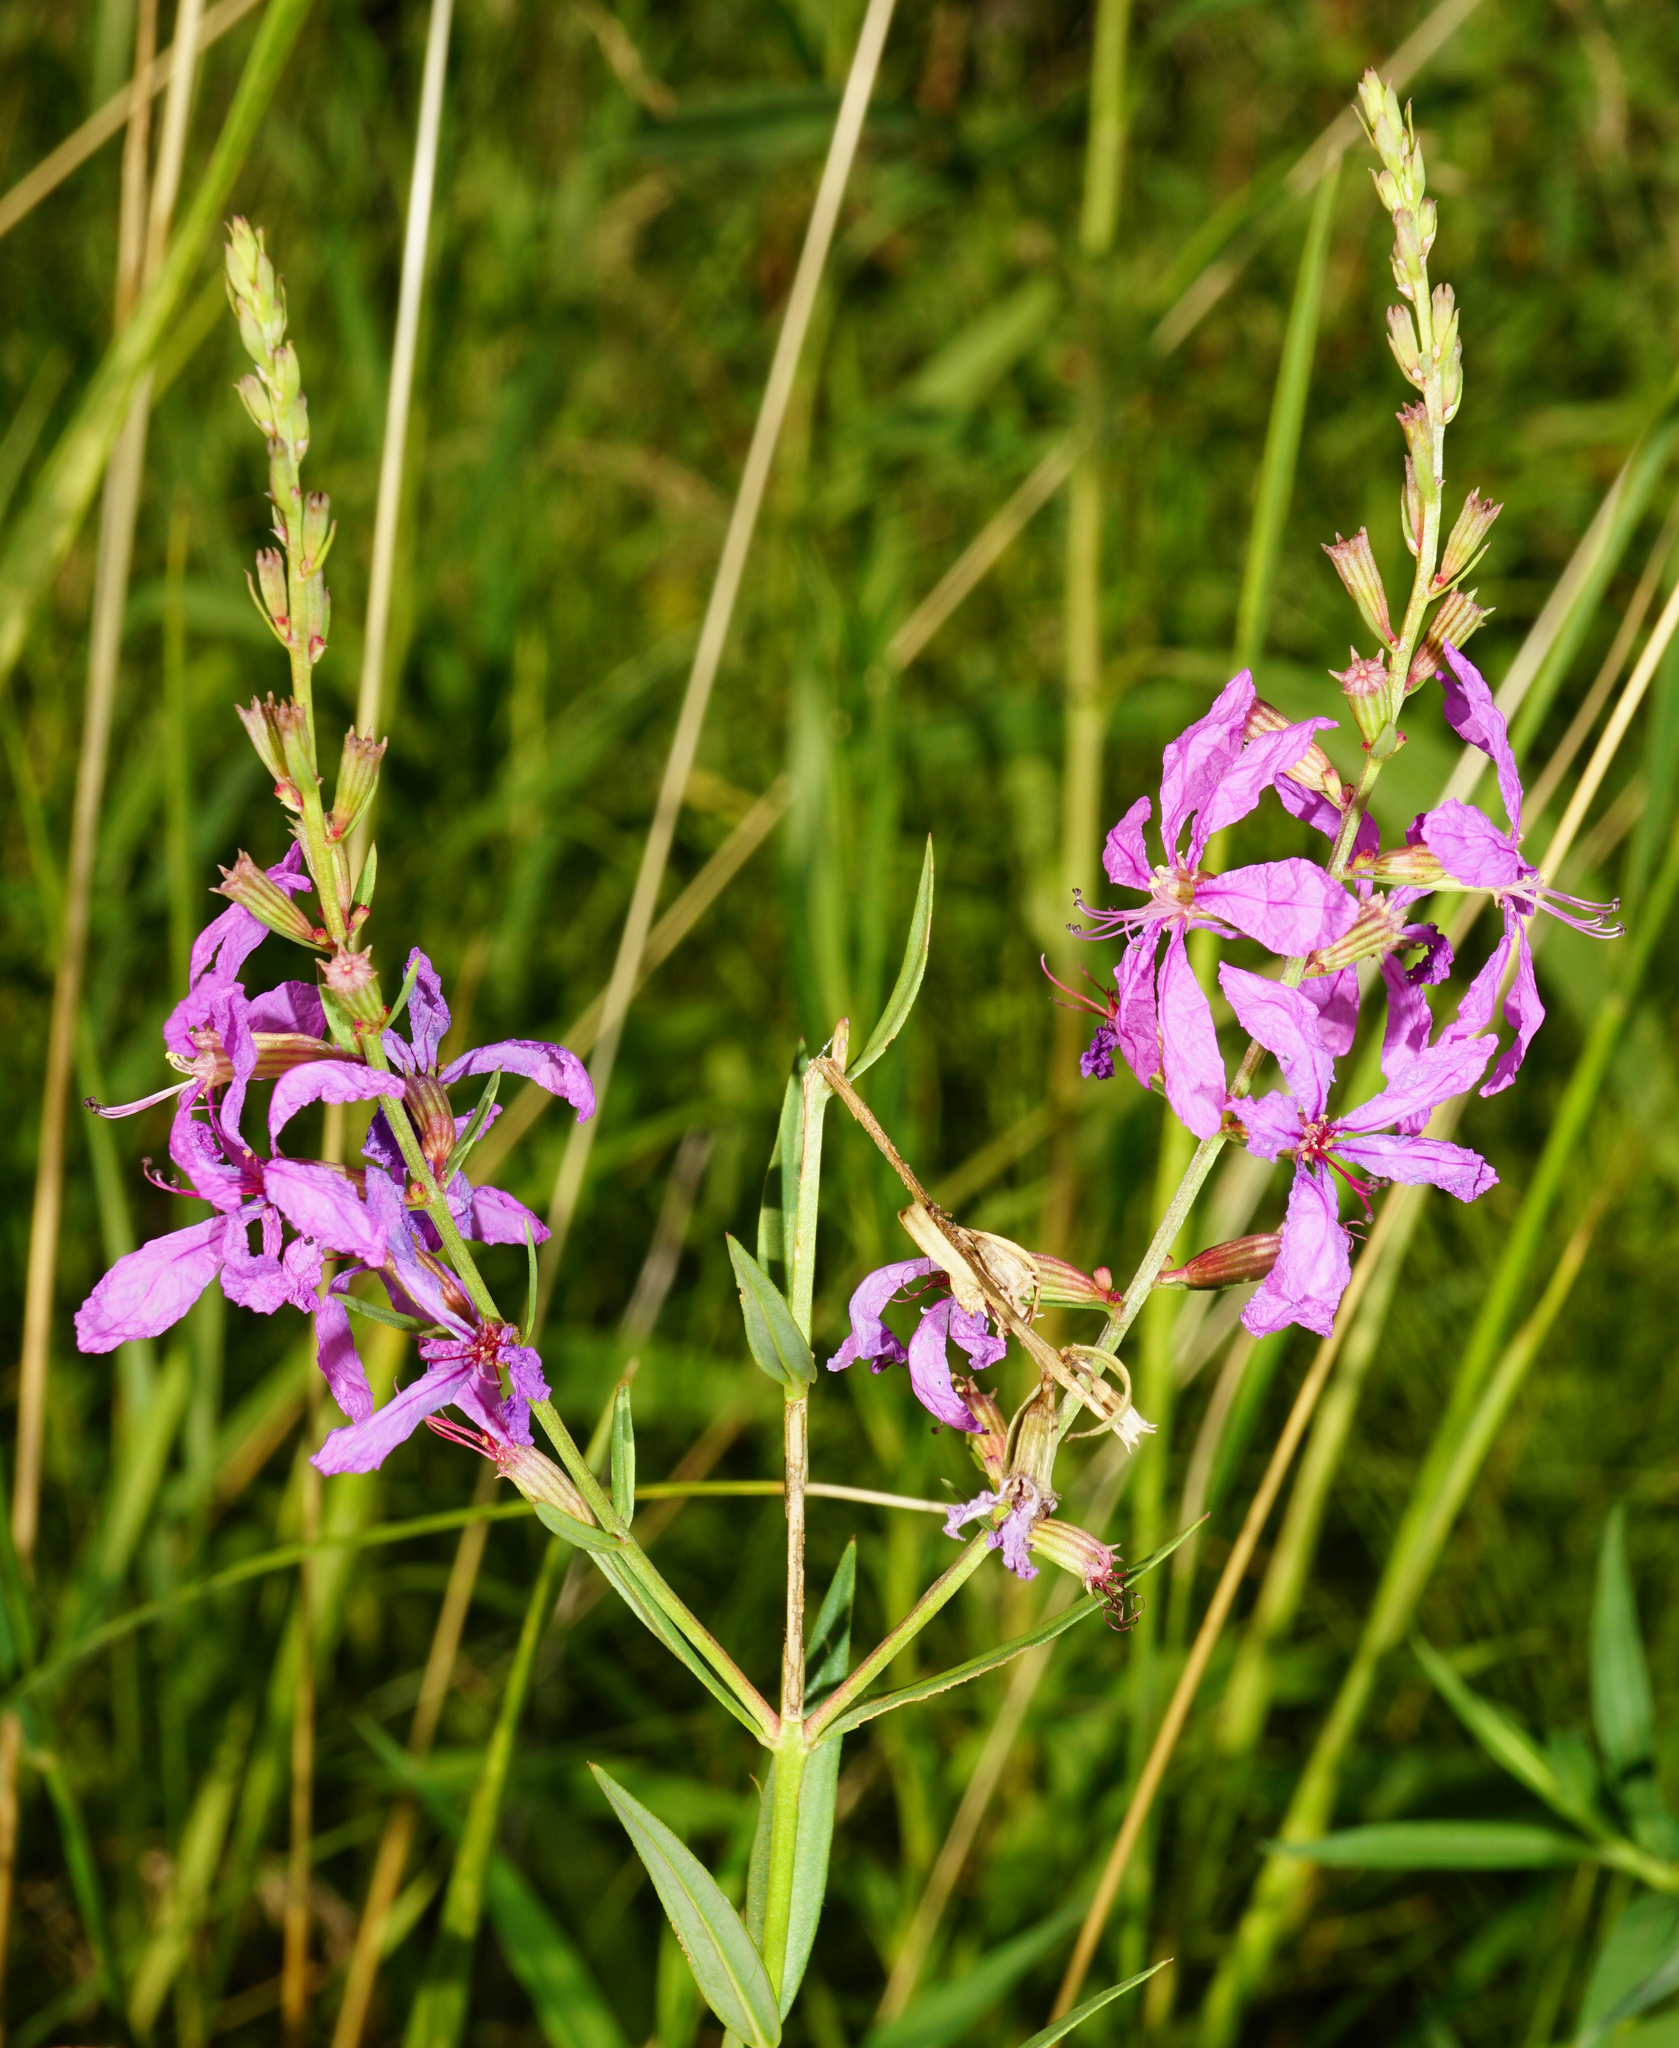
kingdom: Plantae
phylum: Tracheophyta
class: Magnoliopsida
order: Myrtales
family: Lythraceae
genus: Lythrum
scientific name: Lythrum virgatum
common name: European wand loosestrife
